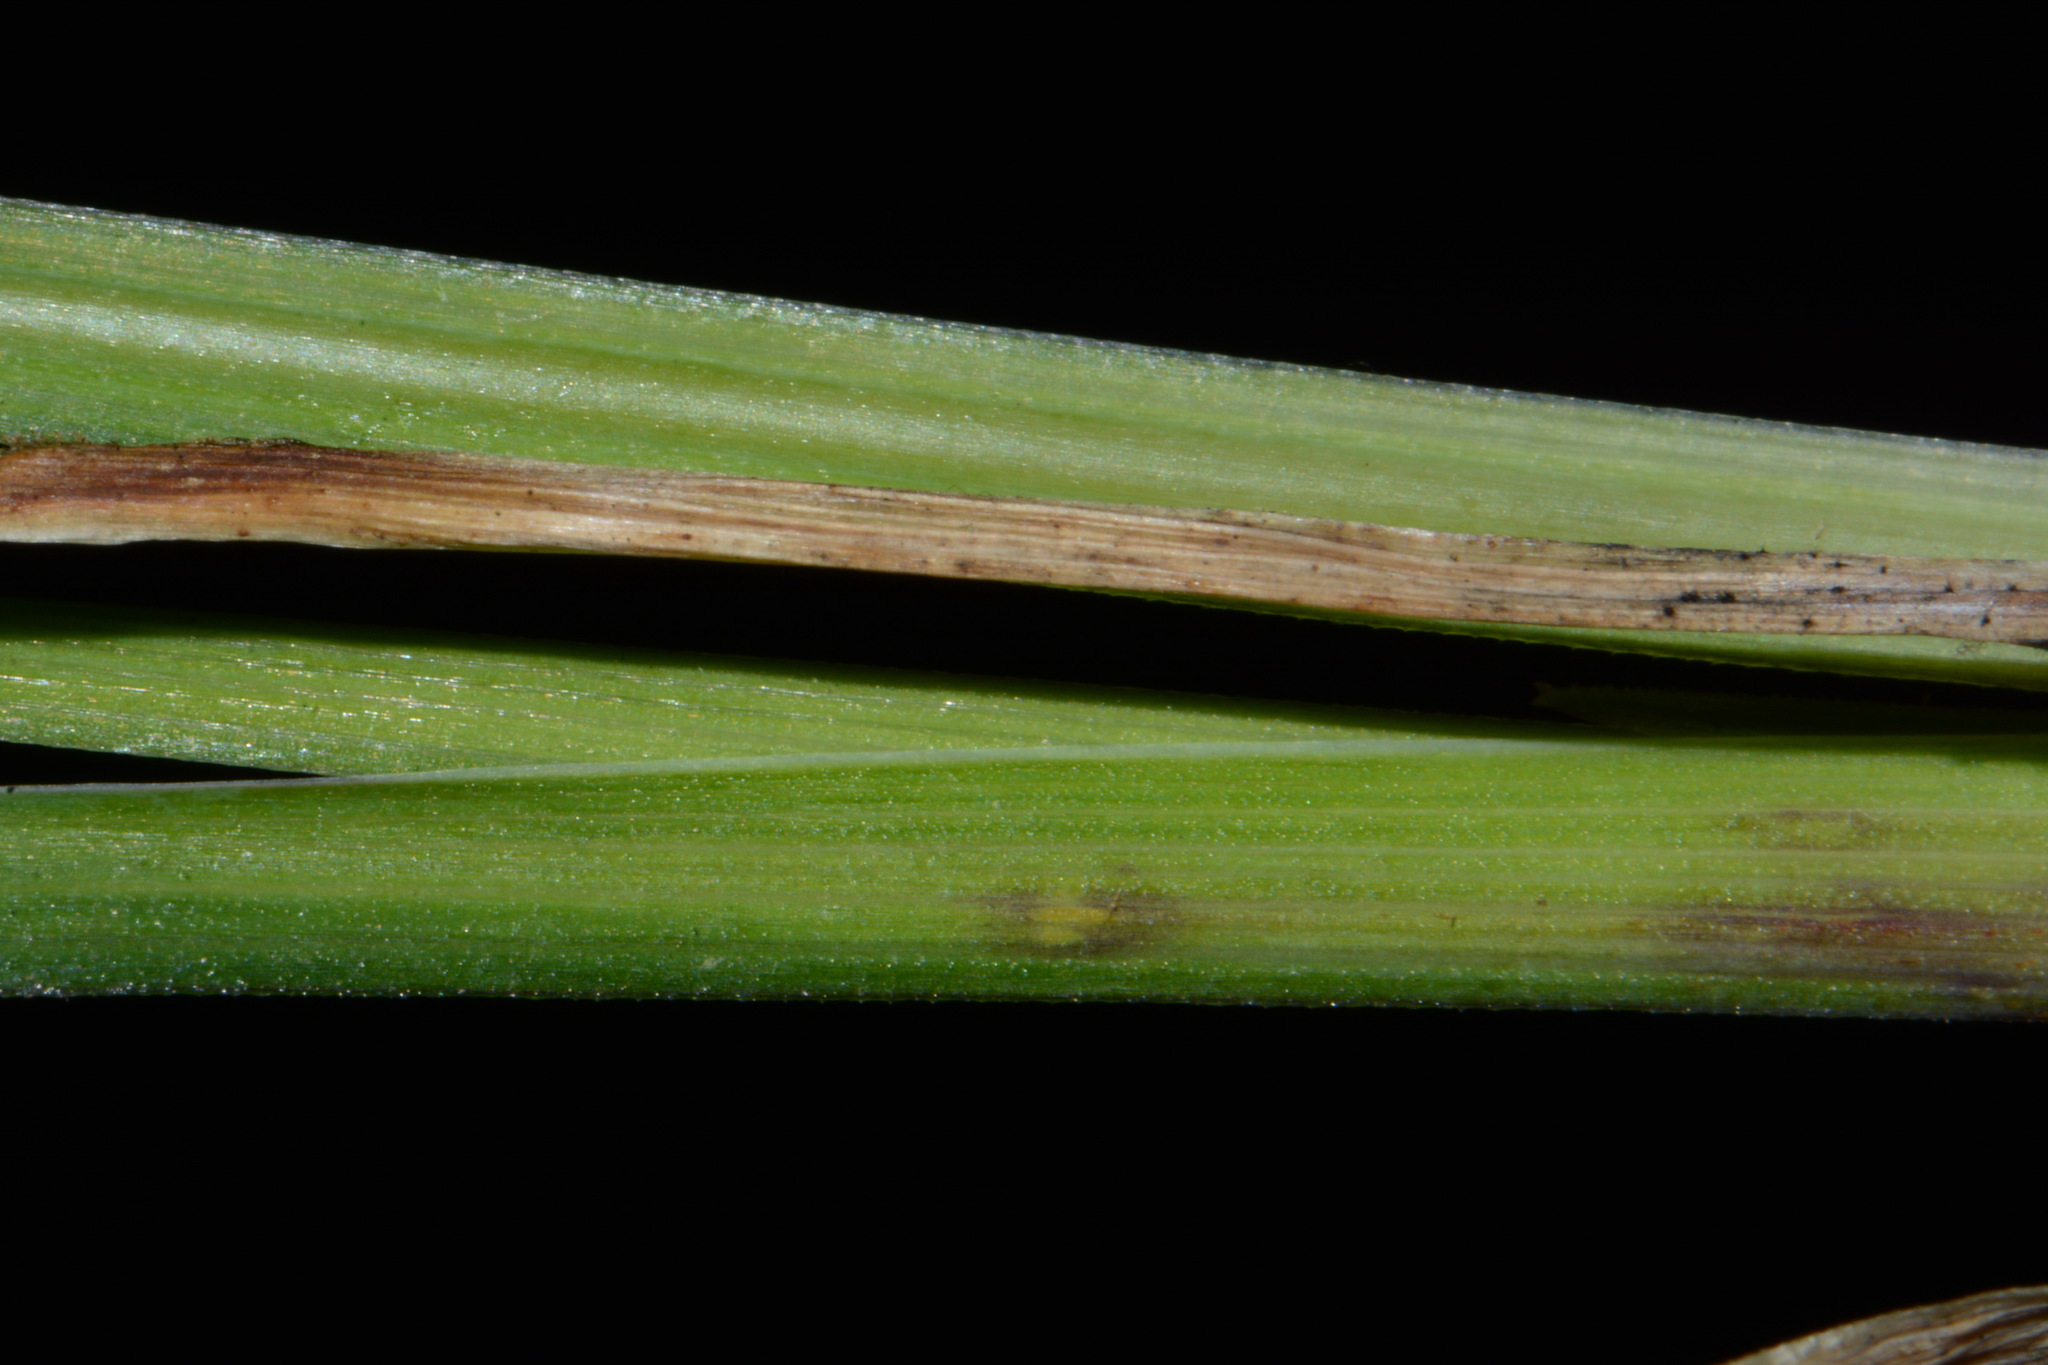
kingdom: Plantae
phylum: Tracheophyta
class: Liliopsida
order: Asparagales
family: Iridaceae
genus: Sisyrinchium
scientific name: Sisyrinchium angustifolium
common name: Narrow-leaf blue-eyed-grass
